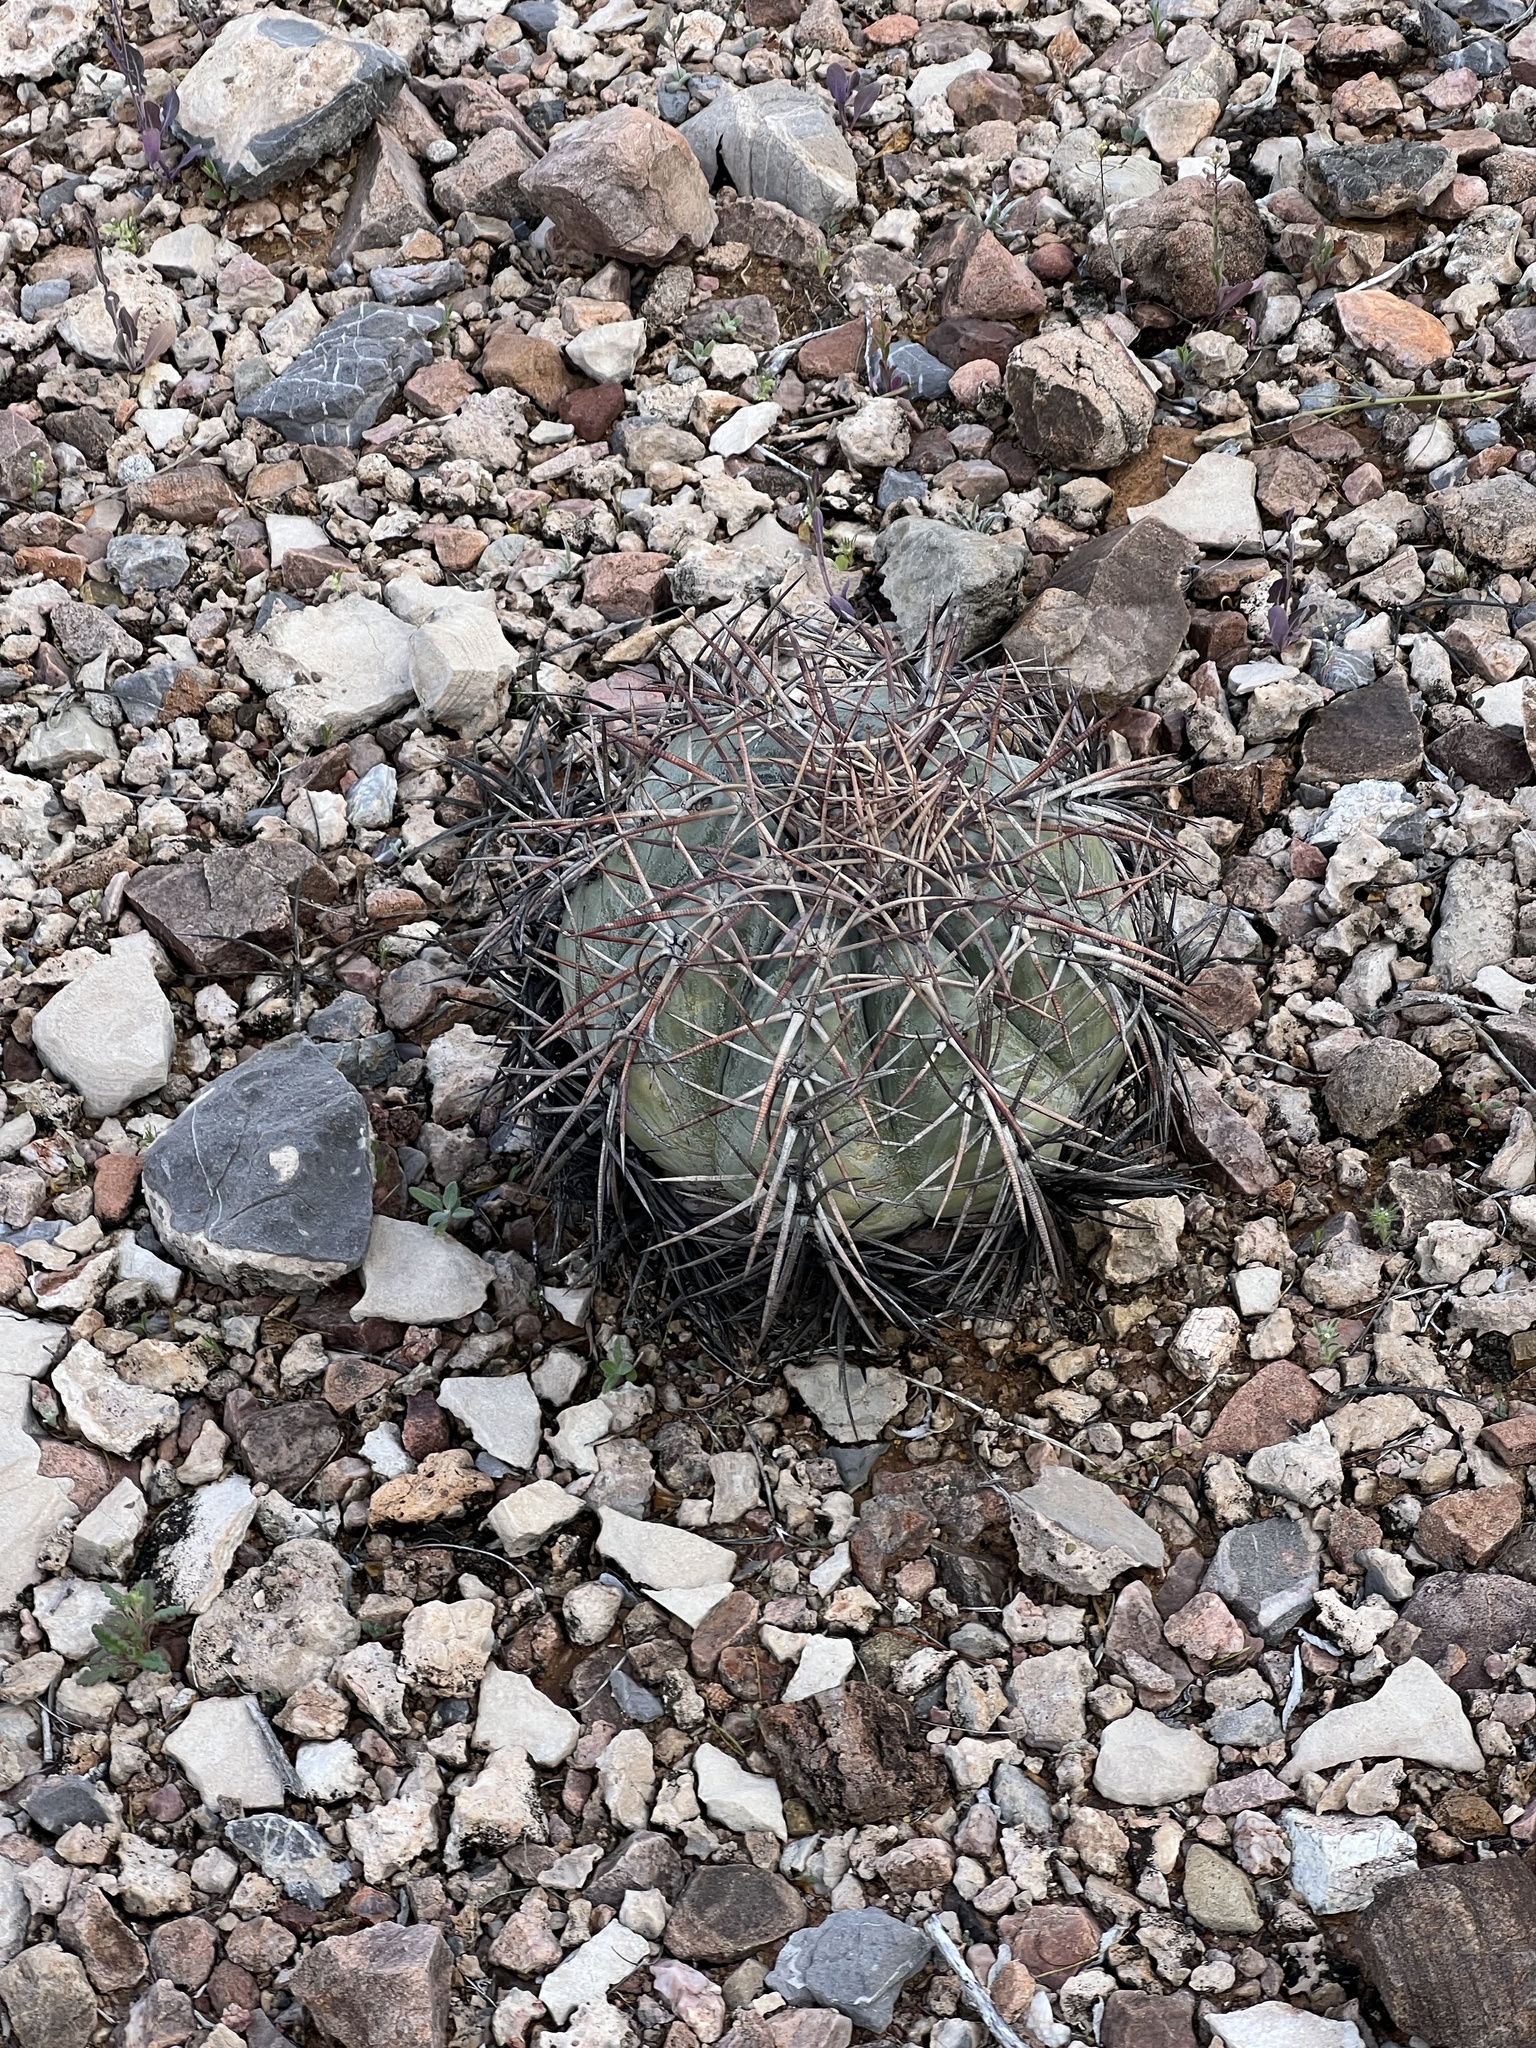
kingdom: Plantae
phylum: Tracheophyta
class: Magnoliopsida
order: Caryophyllales
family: Cactaceae
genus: Echinocactus
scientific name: Echinocactus horizonthalonius
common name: Devilshead
